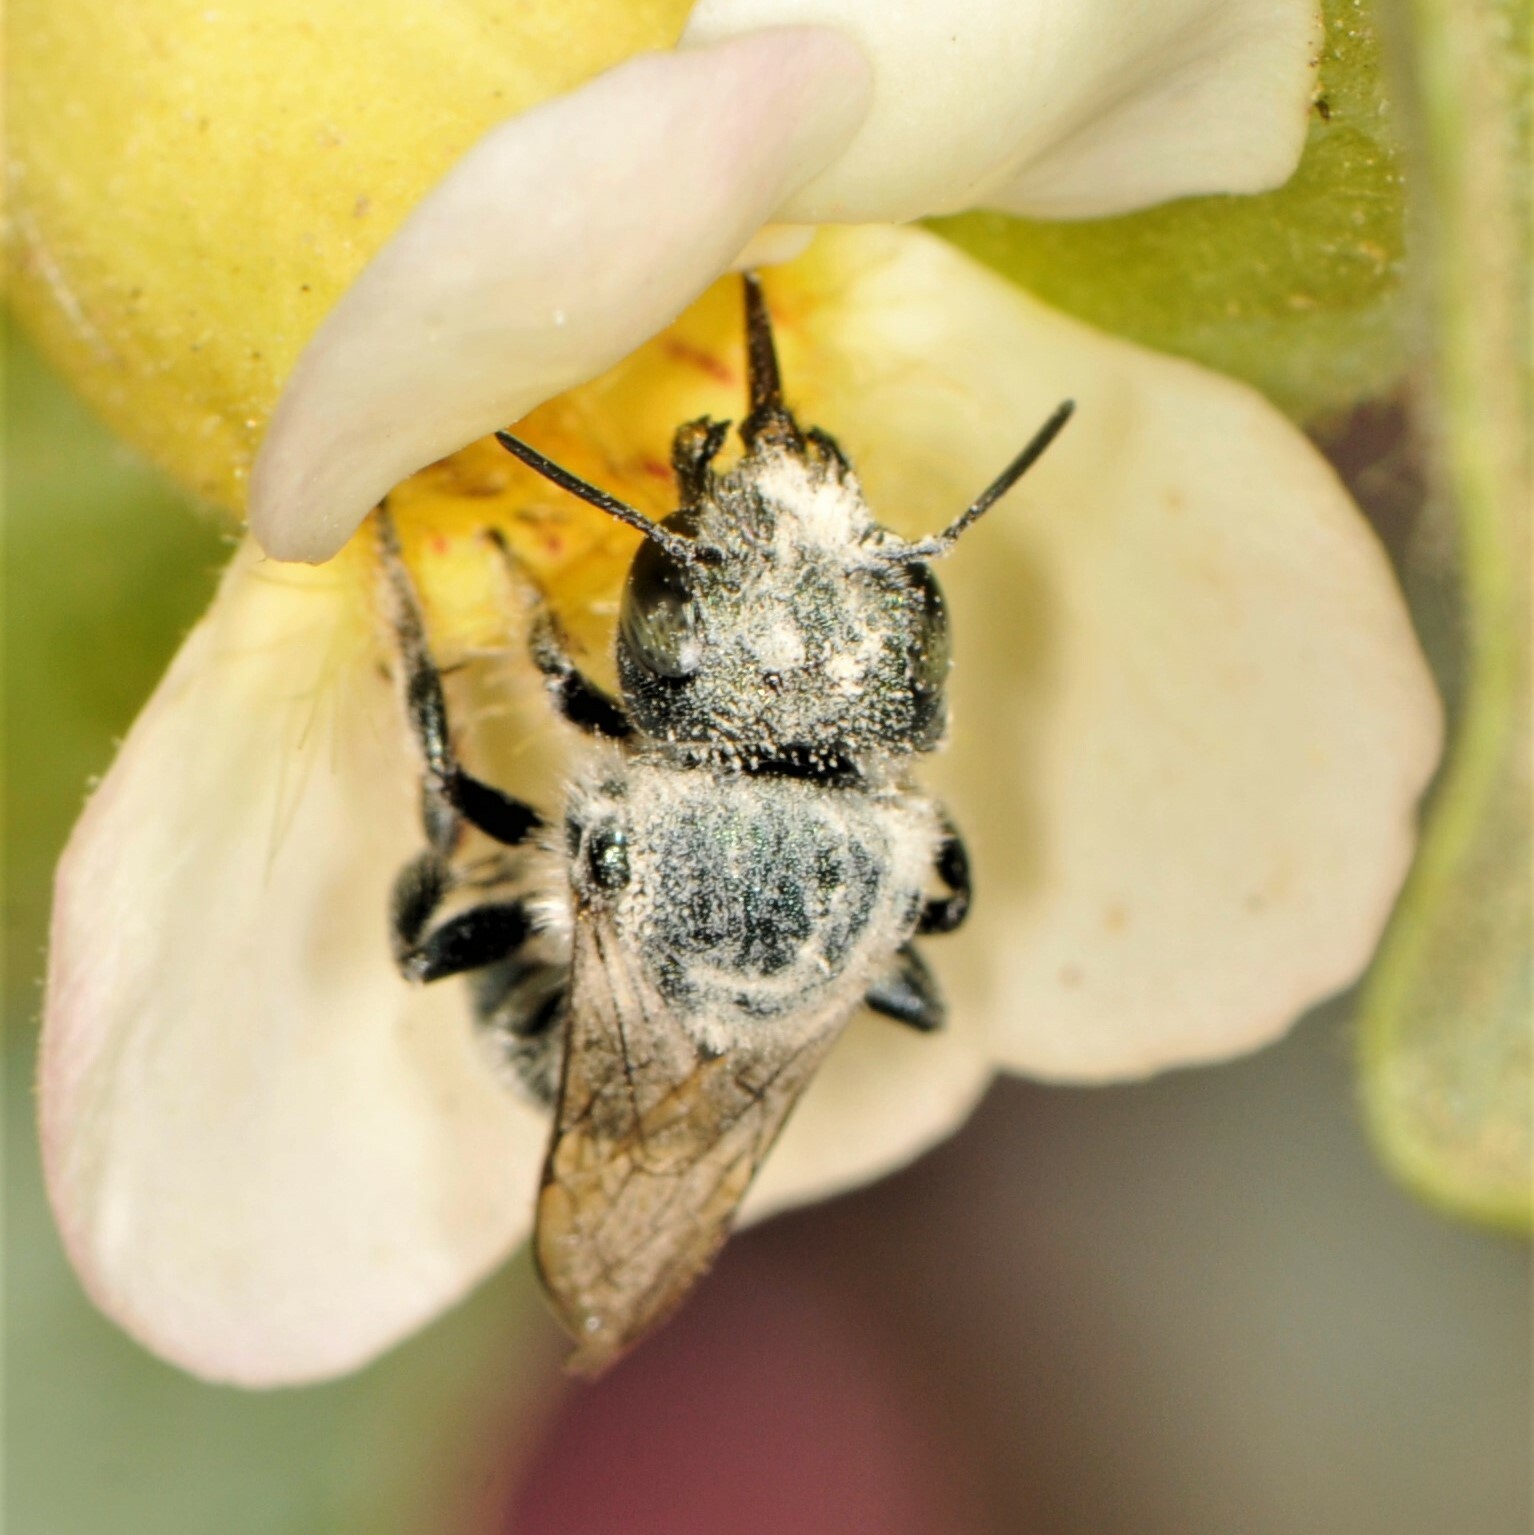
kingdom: Animalia
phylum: Arthropoda
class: Insecta
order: Hymenoptera
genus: Melanosmia
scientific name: Melanosmia
